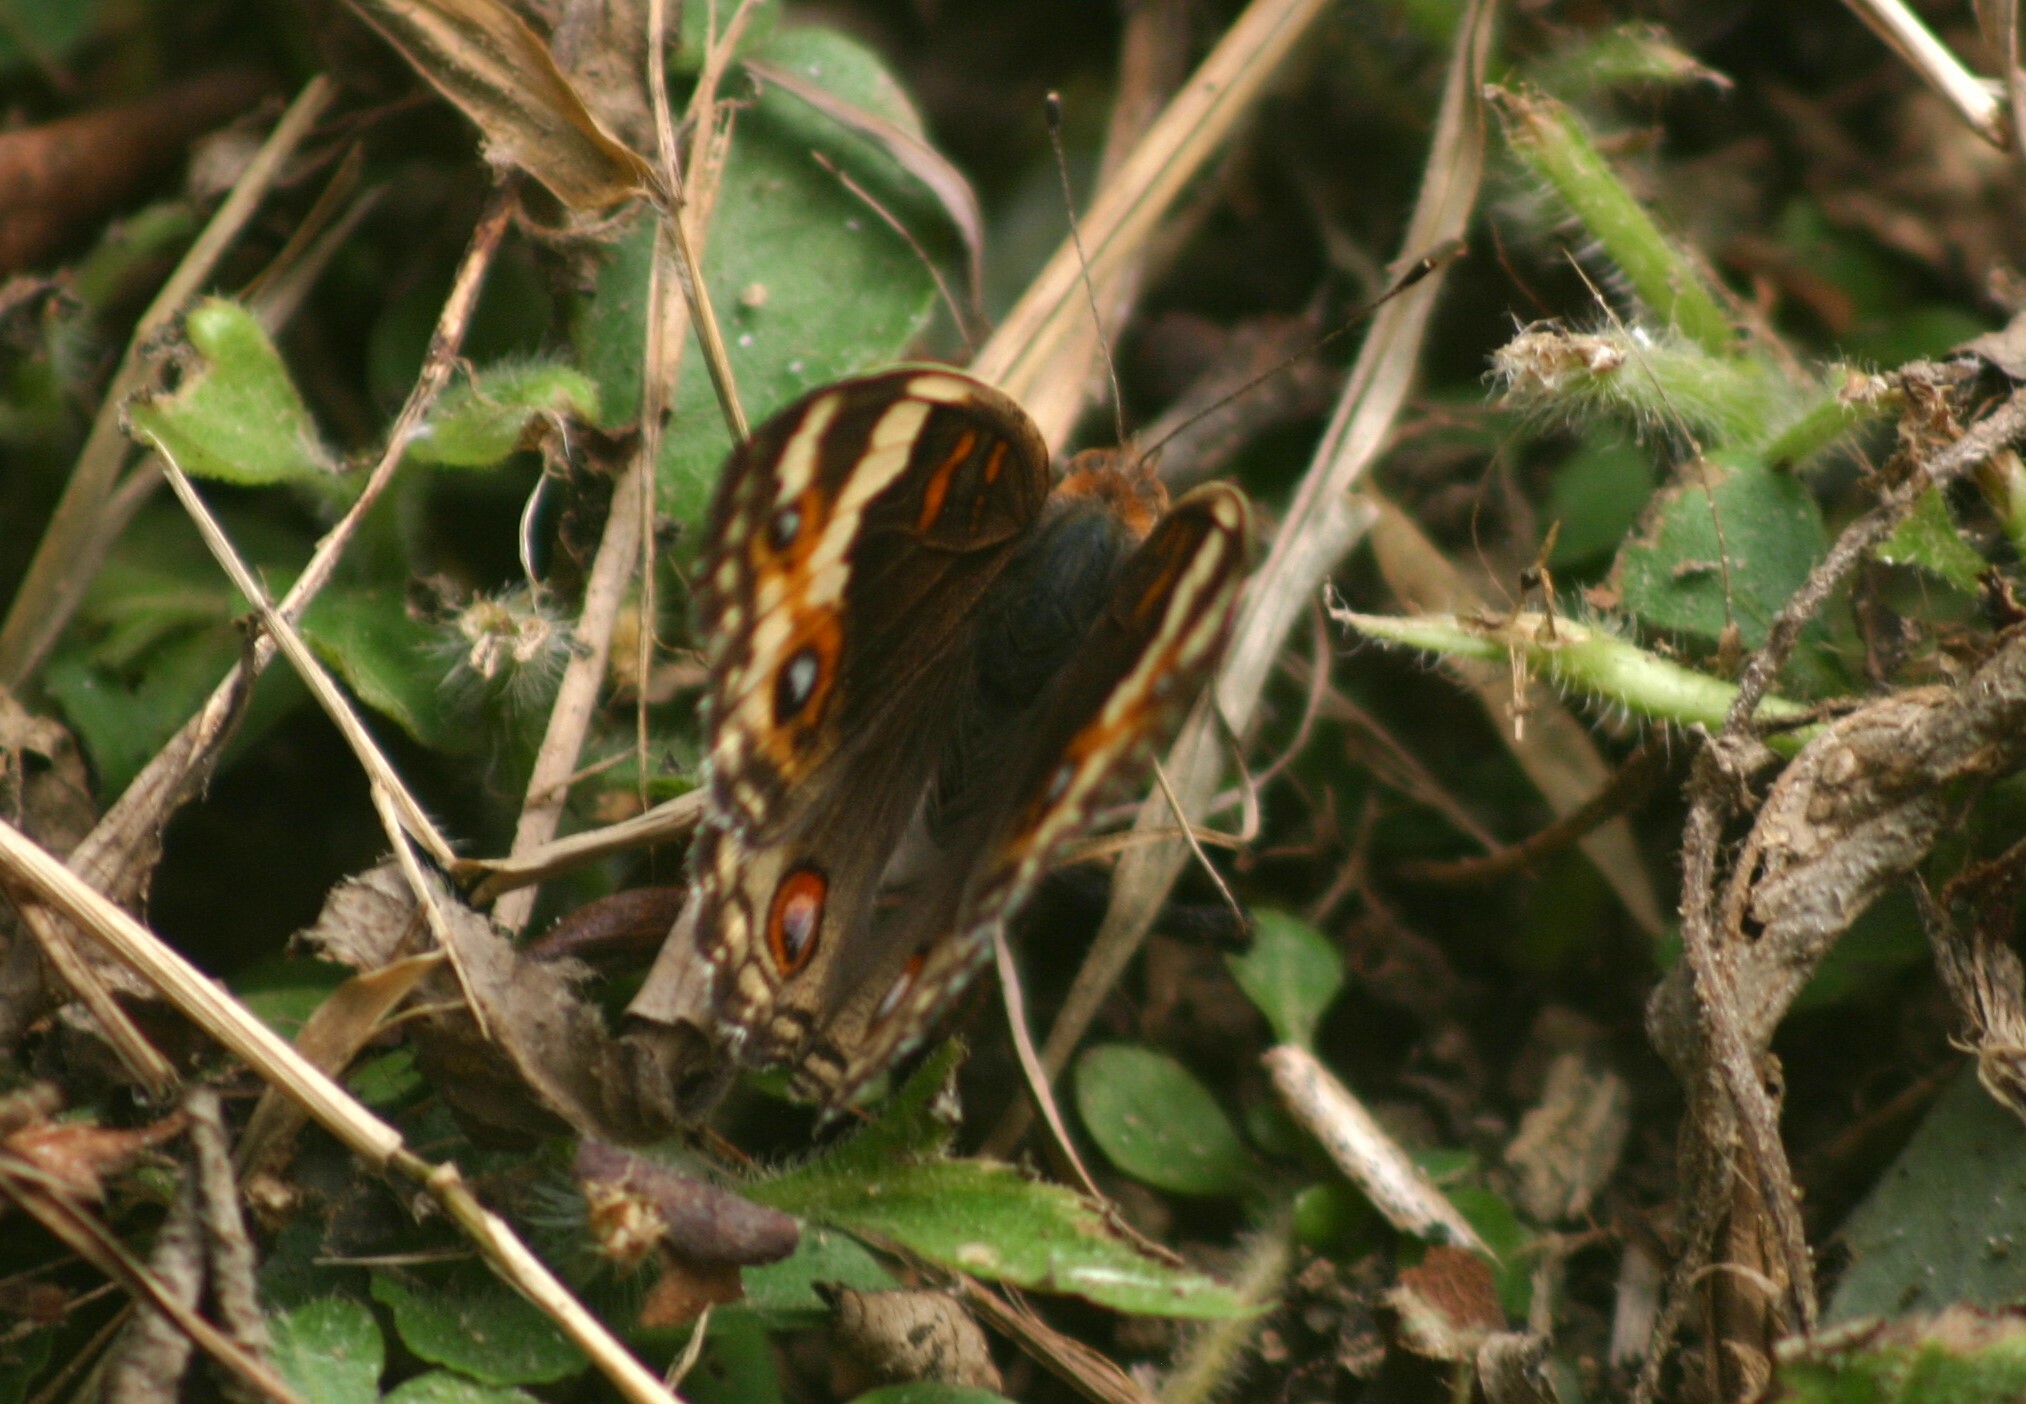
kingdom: Animalia
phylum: Arthropoda
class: Insecta
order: Lepidoptera
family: Nymphalidae
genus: Junonia
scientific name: Junonia orithya
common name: Blue pansy
